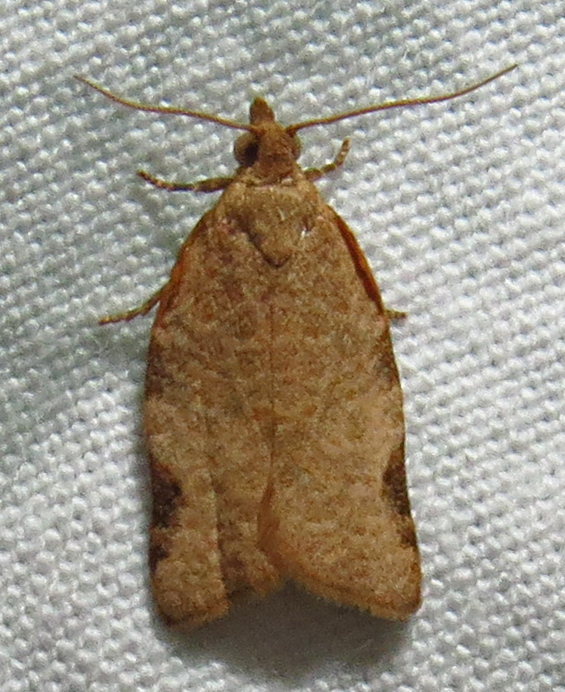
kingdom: Animalia
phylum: Arthropoda
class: Insecta
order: Lepidoptera
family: Tortricidae
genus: Clepsis
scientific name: Clepsis virescana
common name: Greenish apple moth
